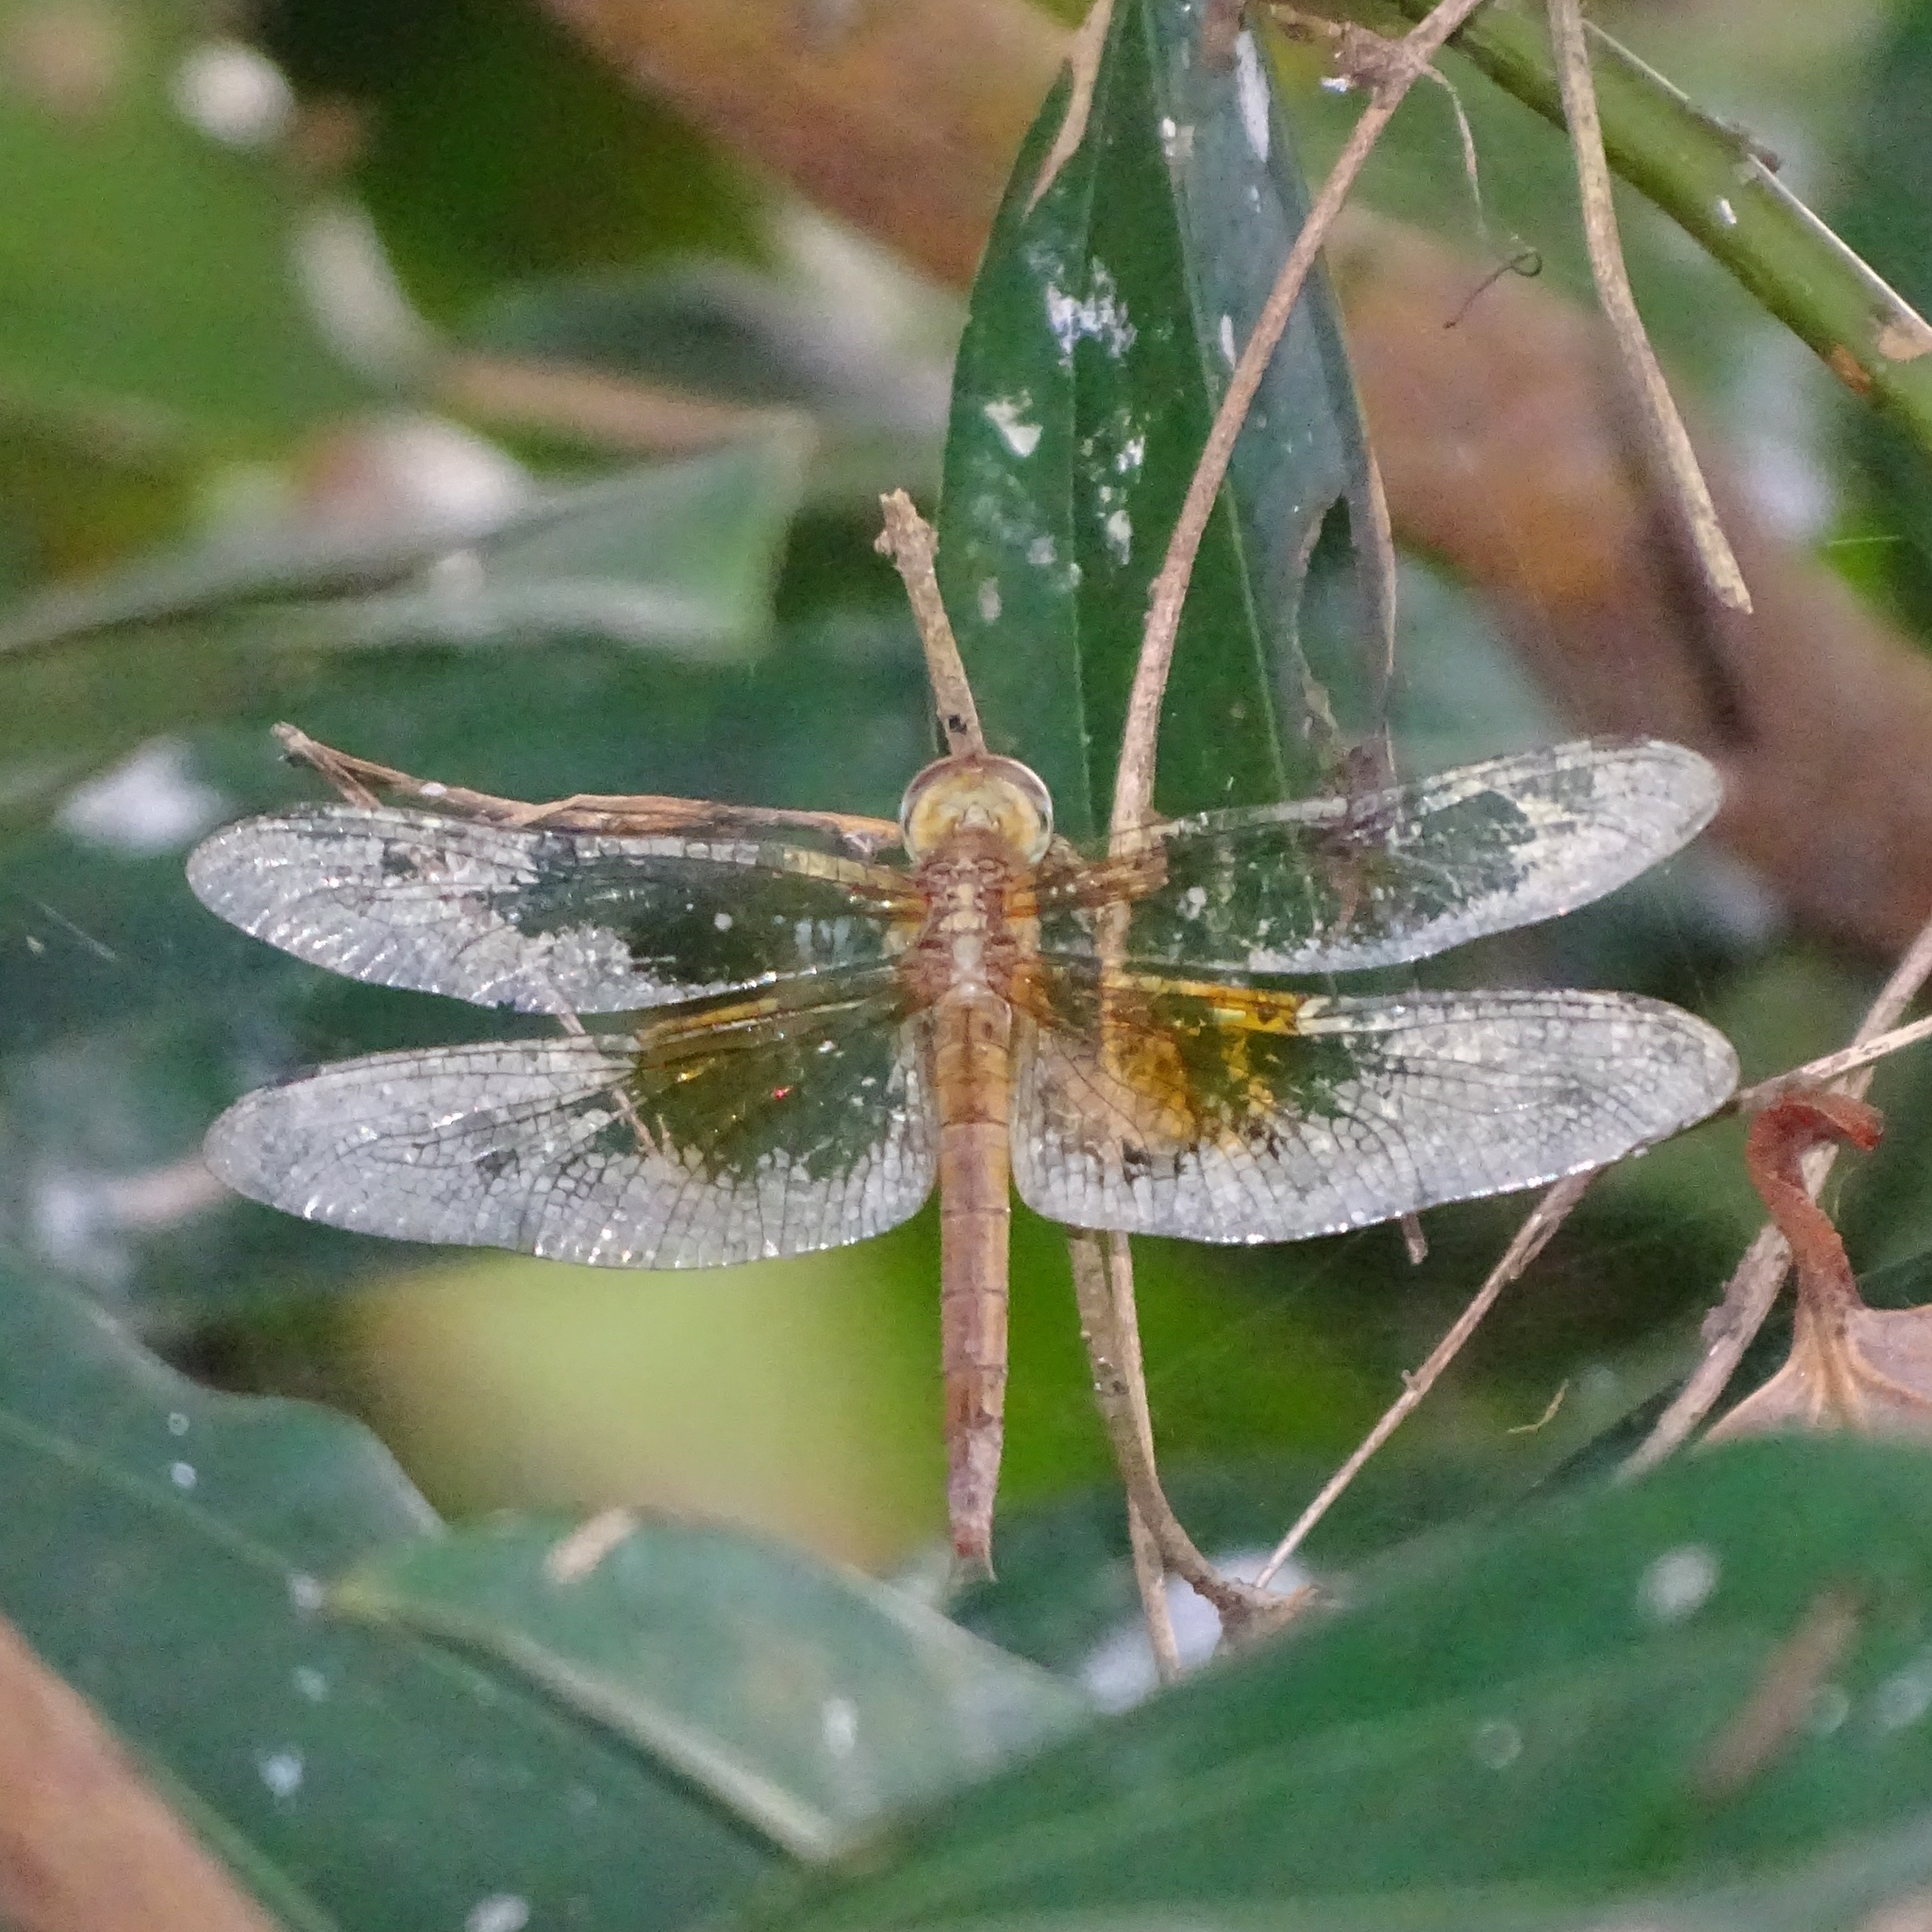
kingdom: Animalia
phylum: Arthropoda
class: Insecta
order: Odonata
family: Libellulidae
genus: Tholymis
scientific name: Tholymis tillarga
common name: Coral-tailed cloud wing
